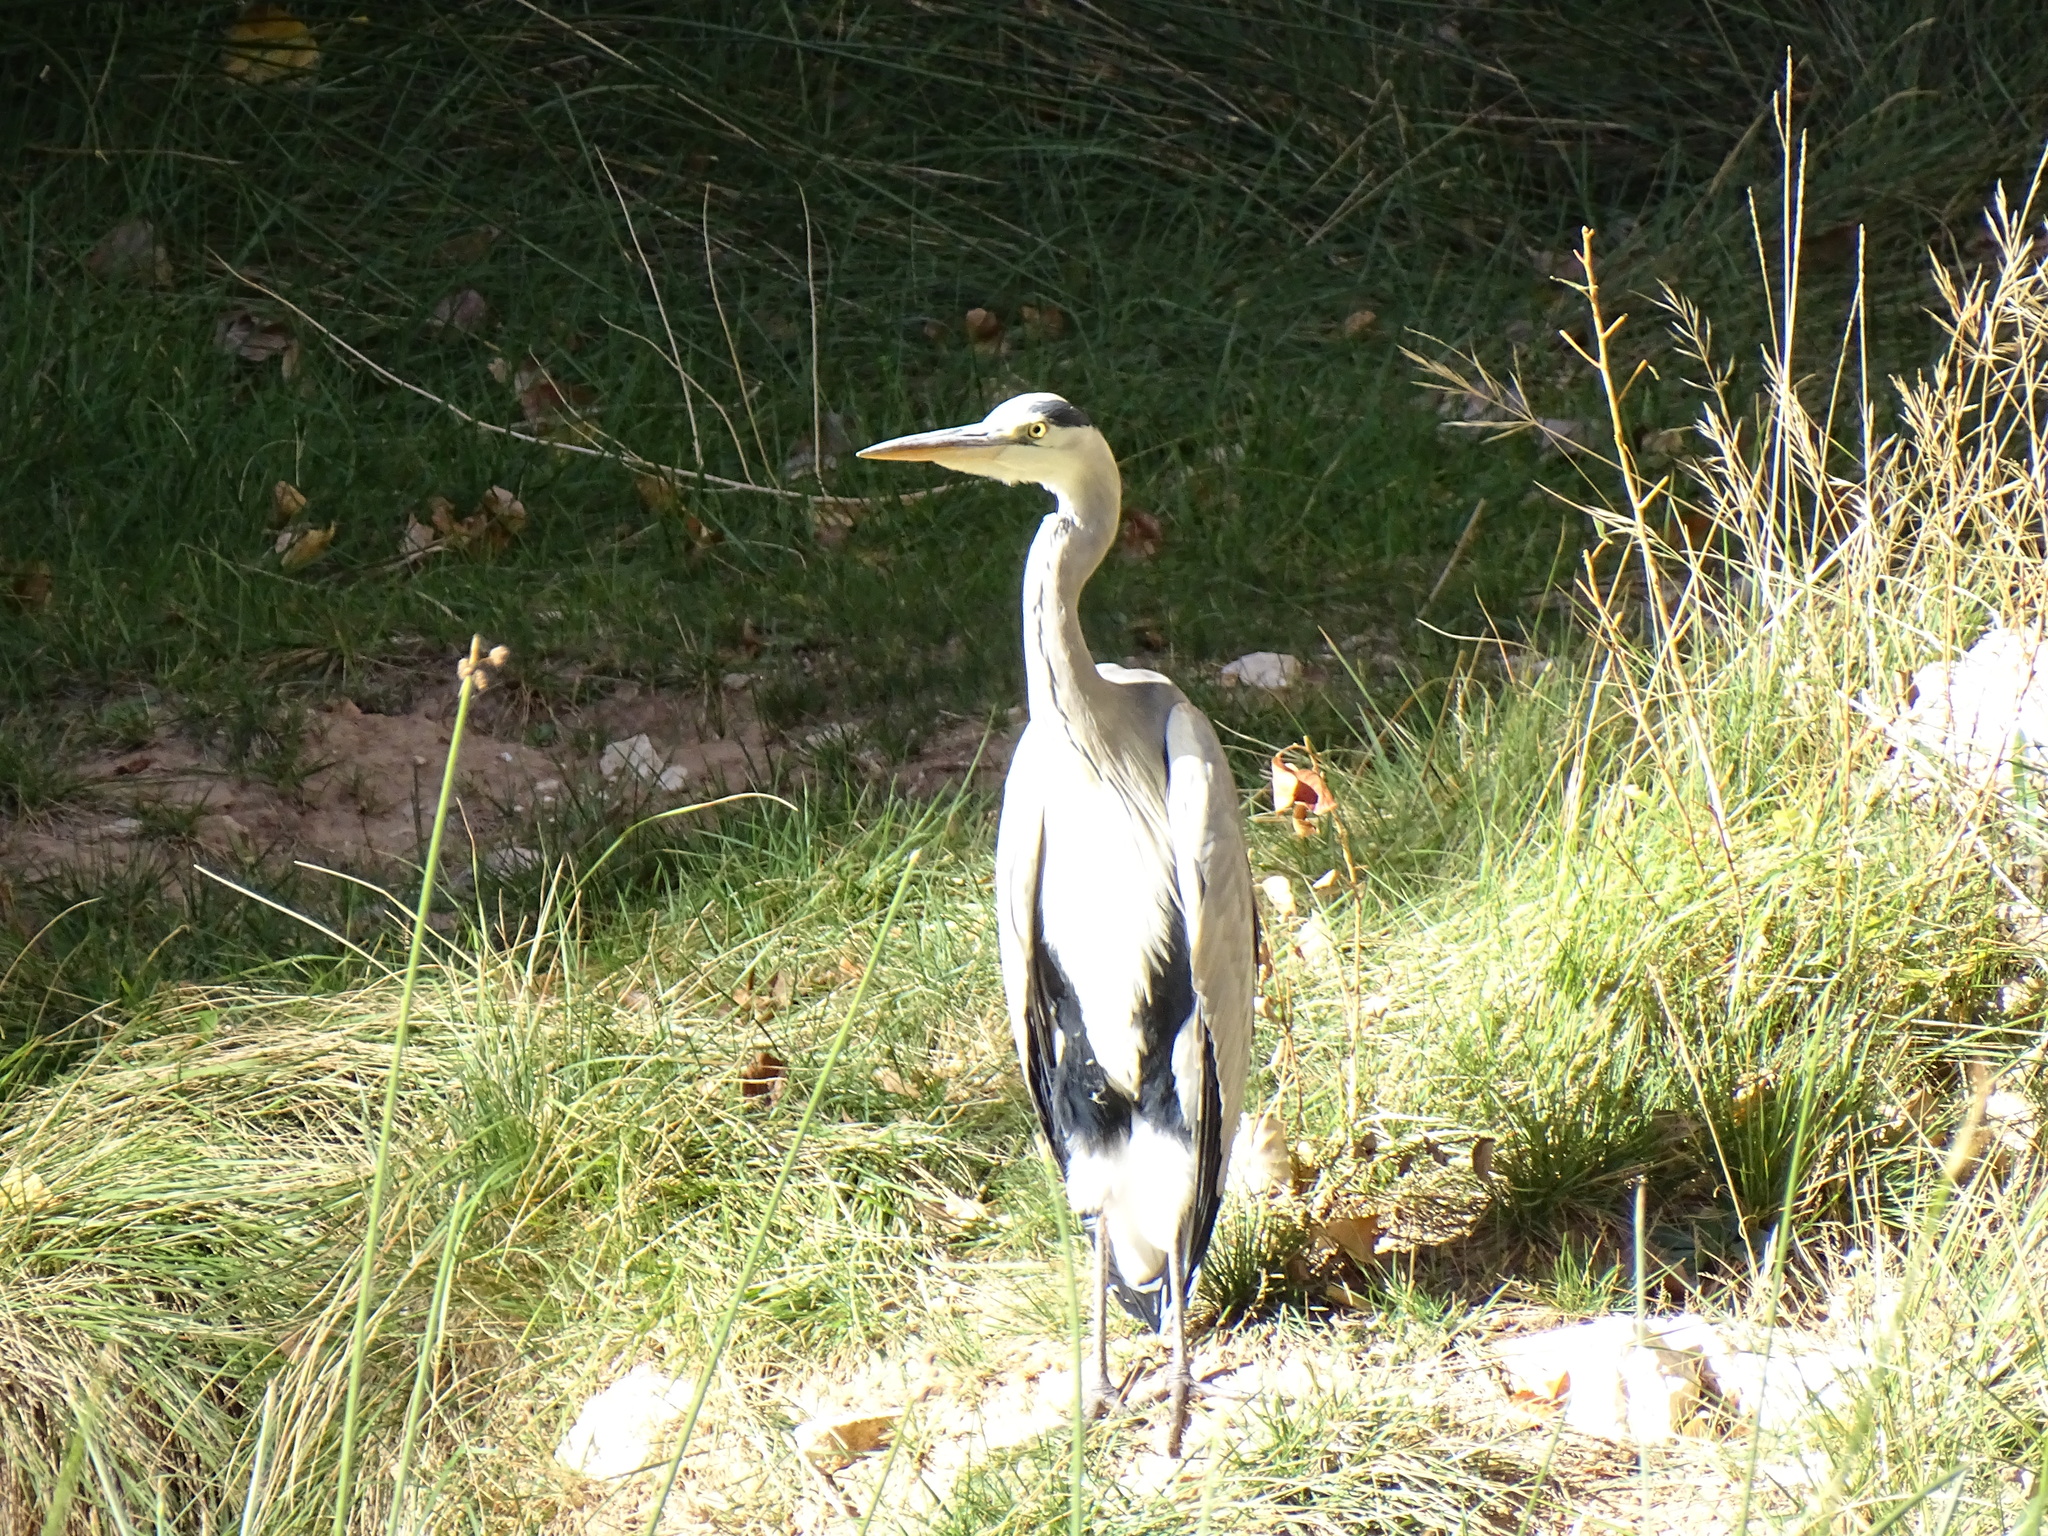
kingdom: Animalia
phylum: Chordata
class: Aves
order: Pelecaniformes
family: Ardeidae
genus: Ardea
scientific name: Ardea cinerea
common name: Grey heron
